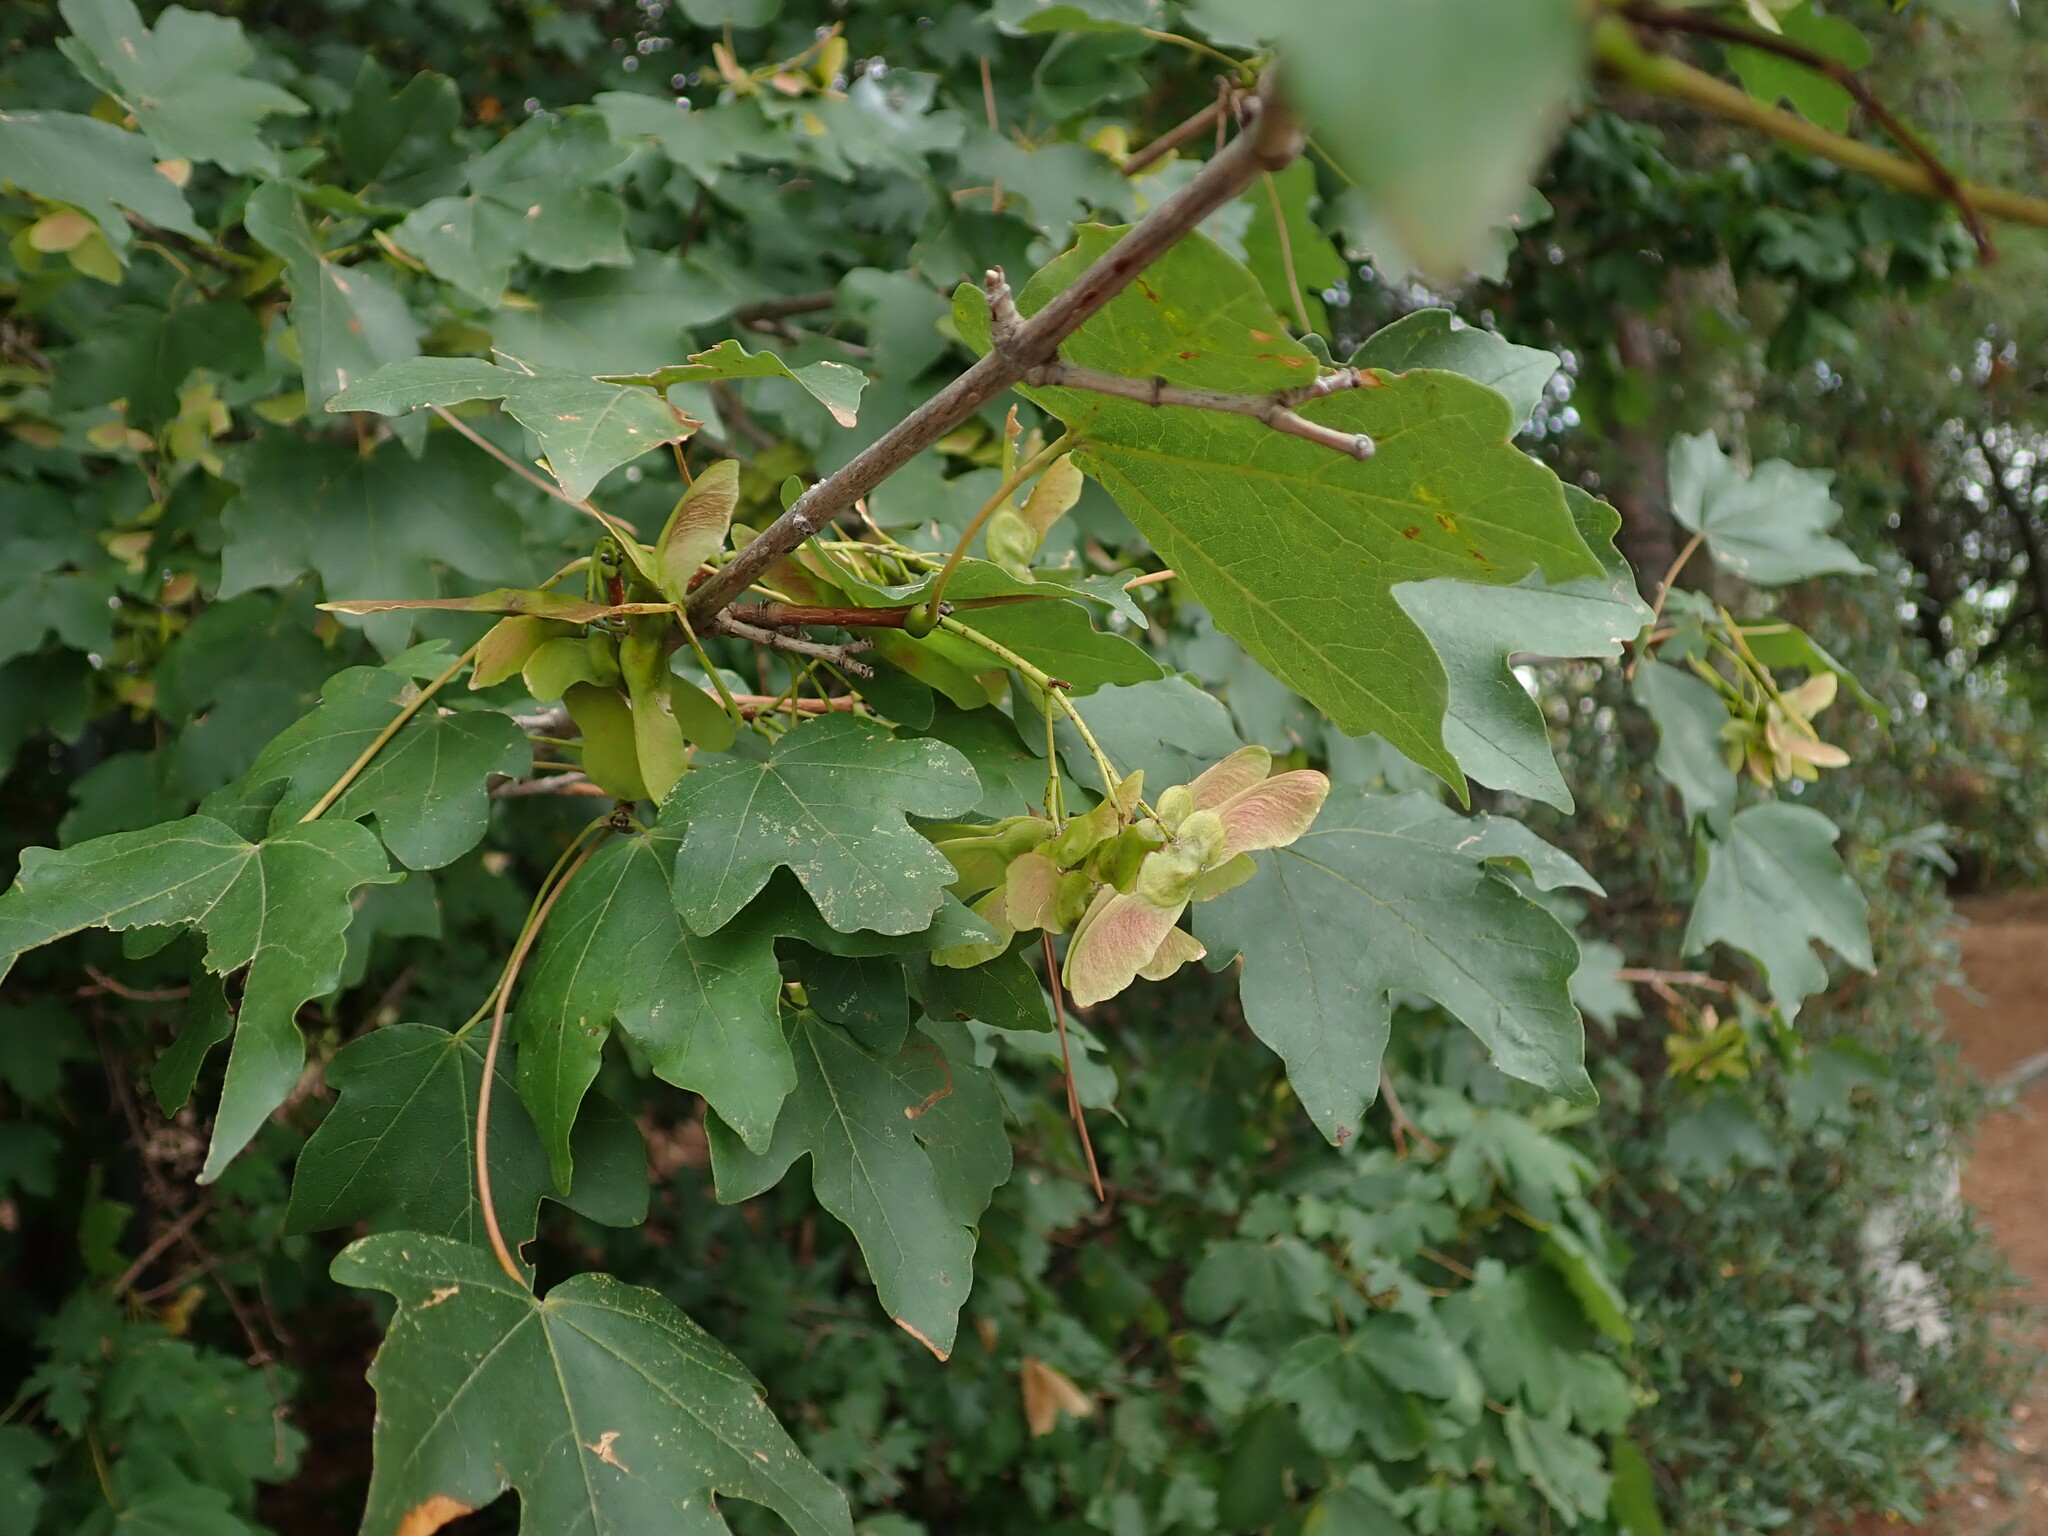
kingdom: Plantae
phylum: Tracheophyta
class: Magnoliopsida
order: Sapindales
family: Sapindaceae
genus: Acer
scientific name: Acer campestre
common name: Field maple
